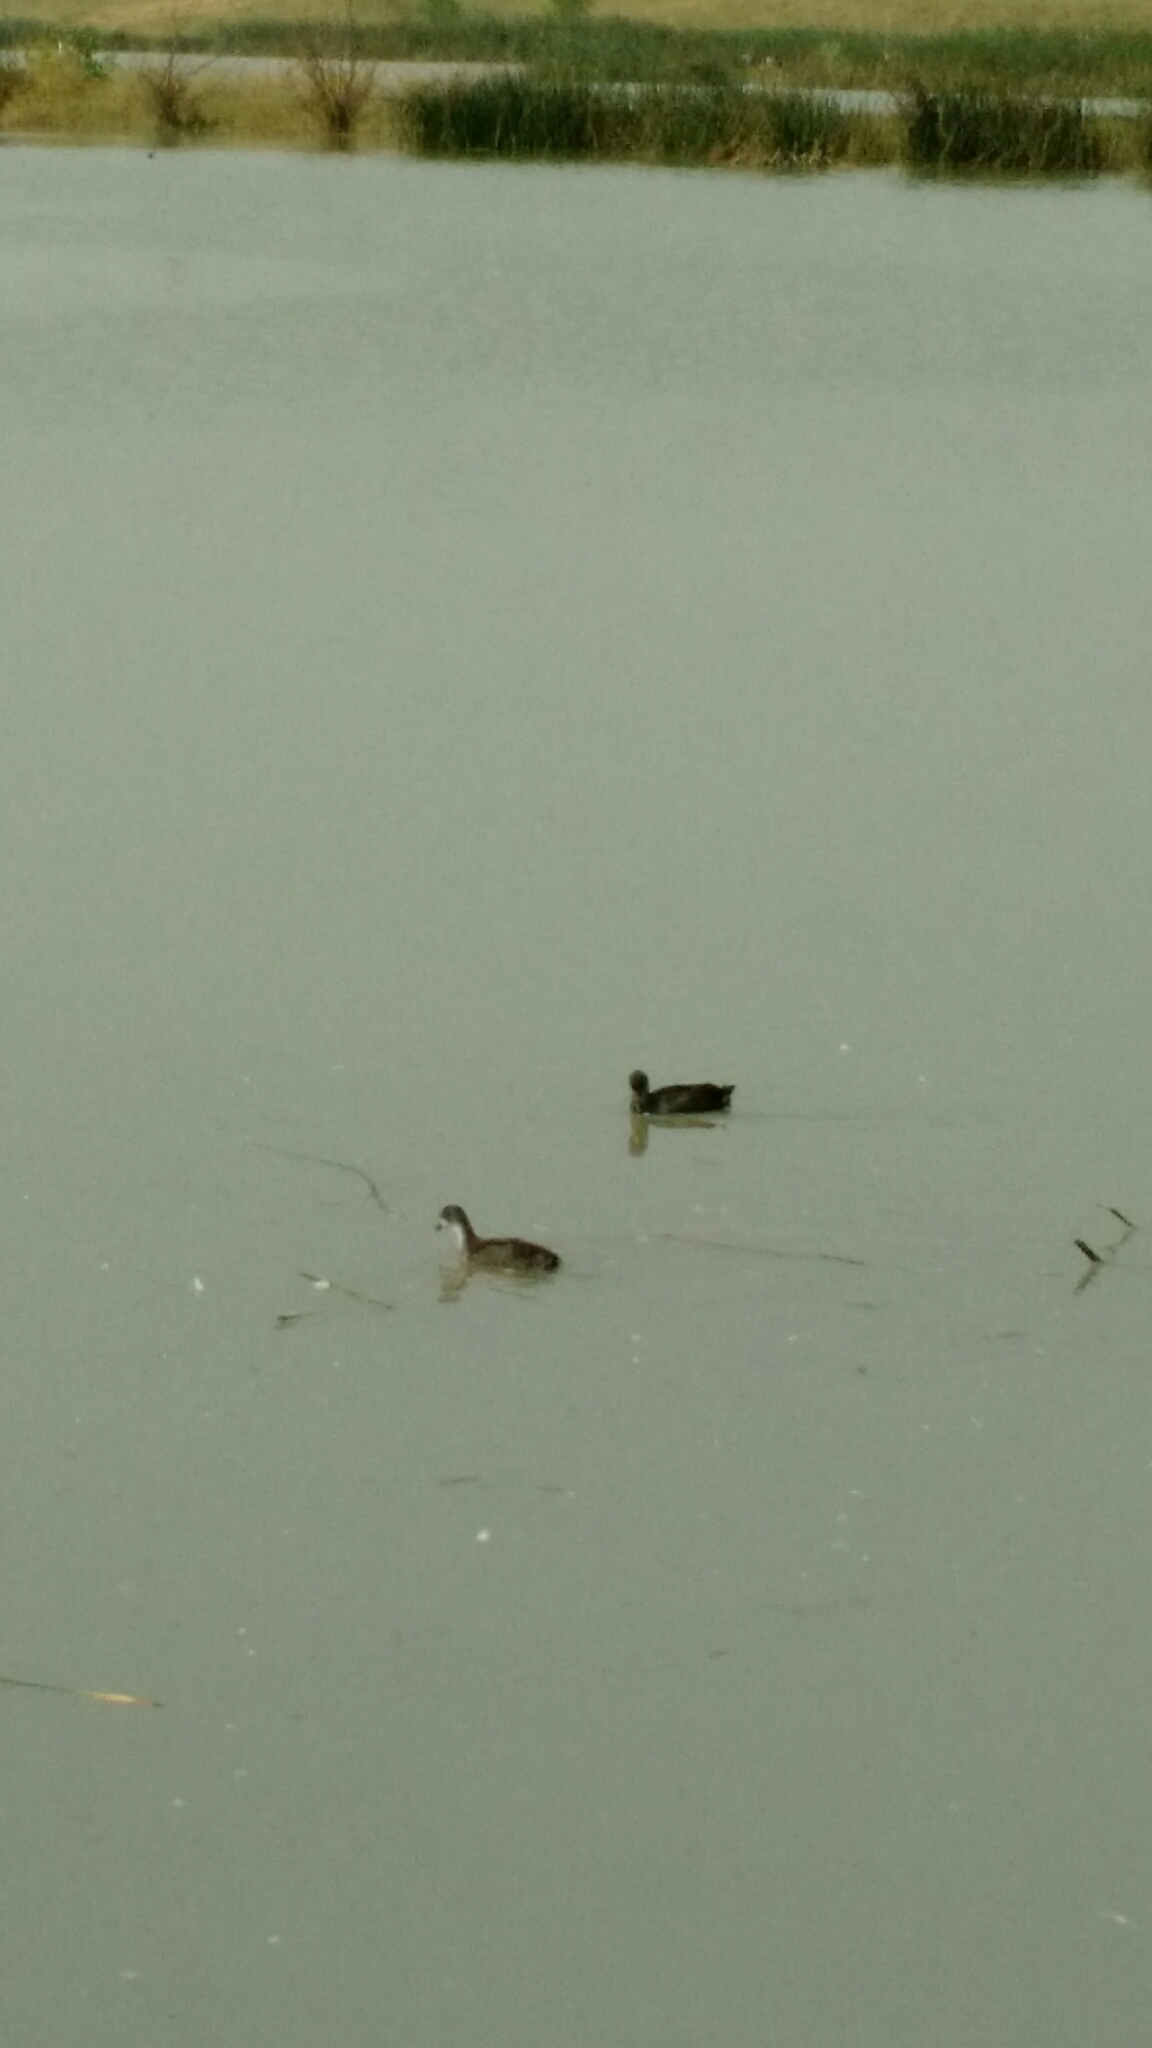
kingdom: Animalia
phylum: Chordata
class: Aves
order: Gruiformes
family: Rallidae
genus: Fulica
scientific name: Fulica americana
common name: American coot
